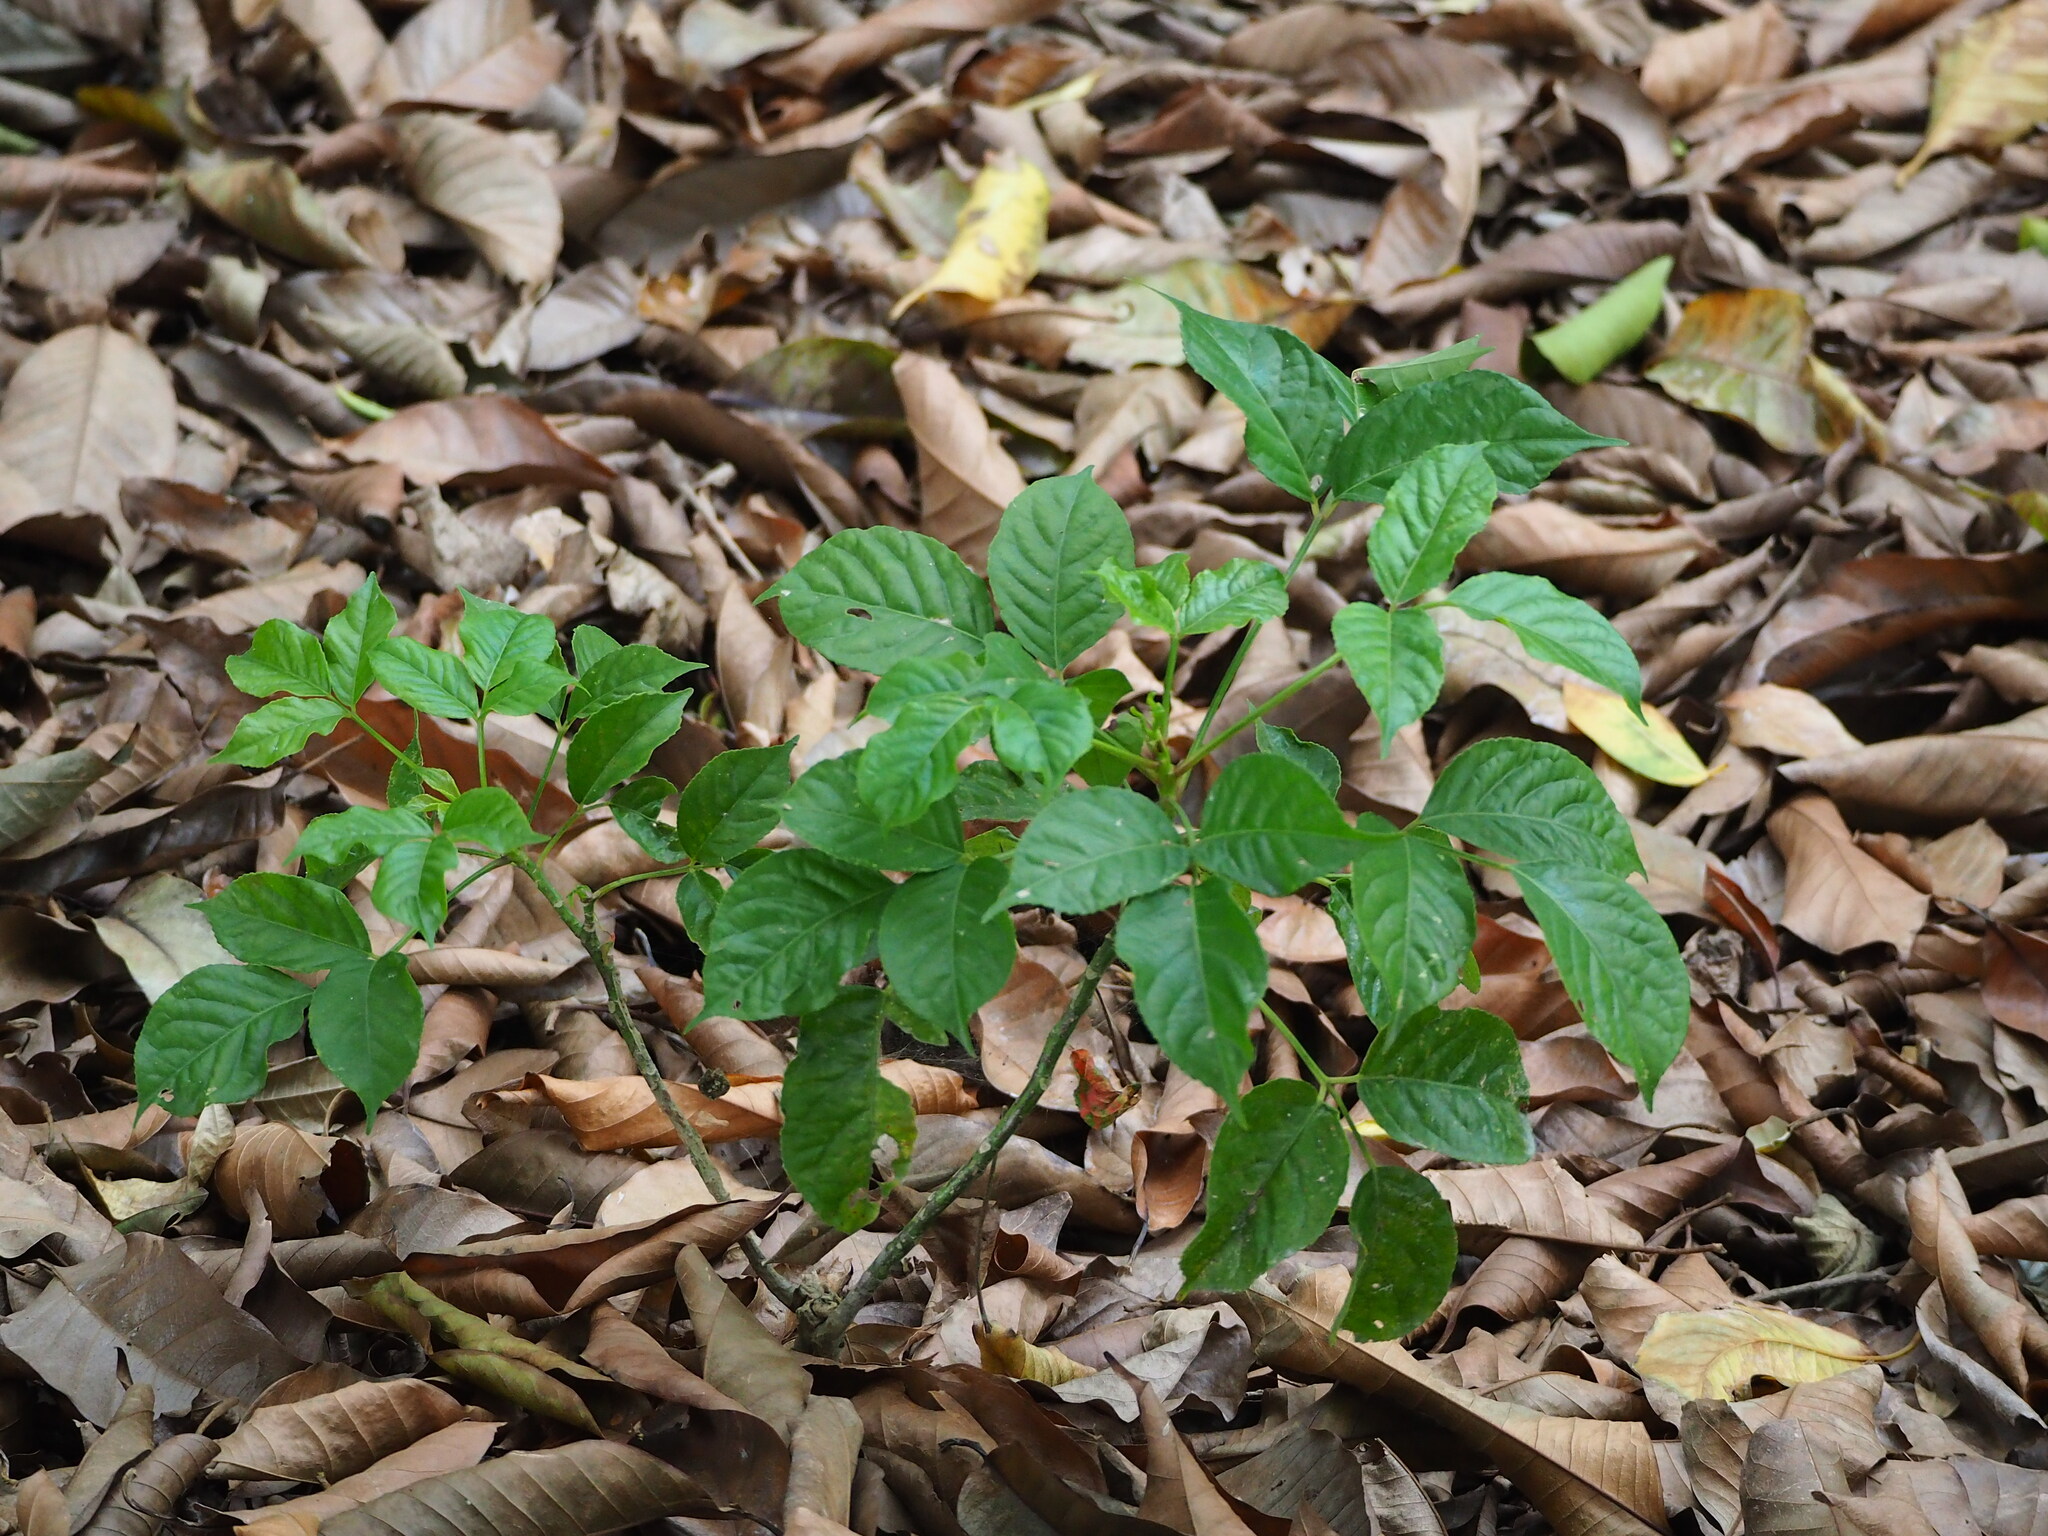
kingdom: Plantae
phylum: Tracheophyta
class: Magnoliopsida
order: Malpighiales
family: Phyllanthaceae
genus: Bischofia
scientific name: Bischofia javanica
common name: Javanese bishopwood
